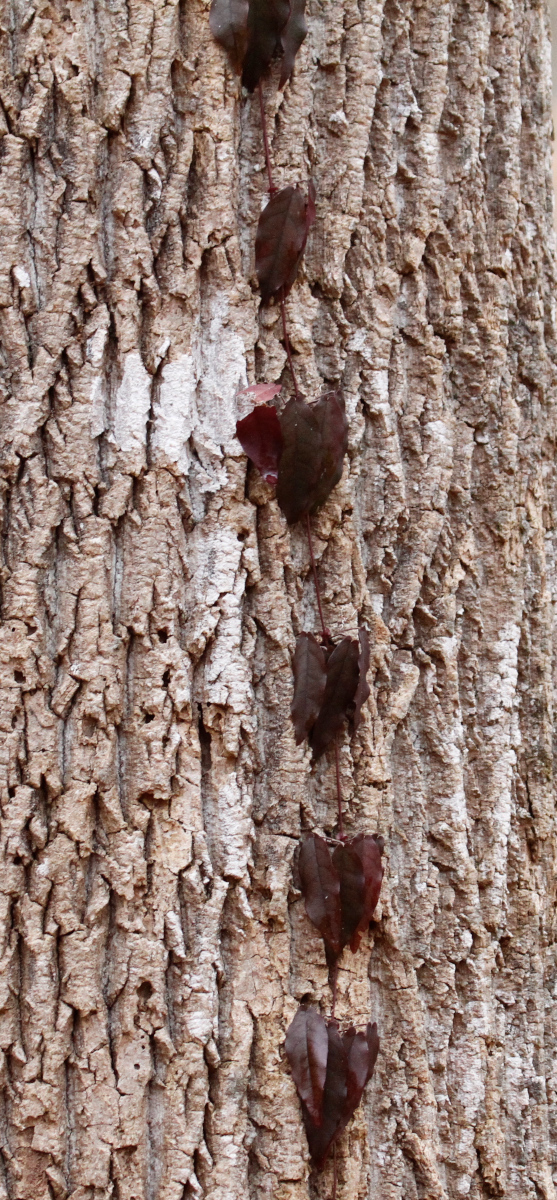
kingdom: Plantae
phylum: Tracheophyta
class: Magnoliopsida
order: Lamiales
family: Bignoniaceae
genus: Bignonia
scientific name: Bignonia capreolata
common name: Crossvine
